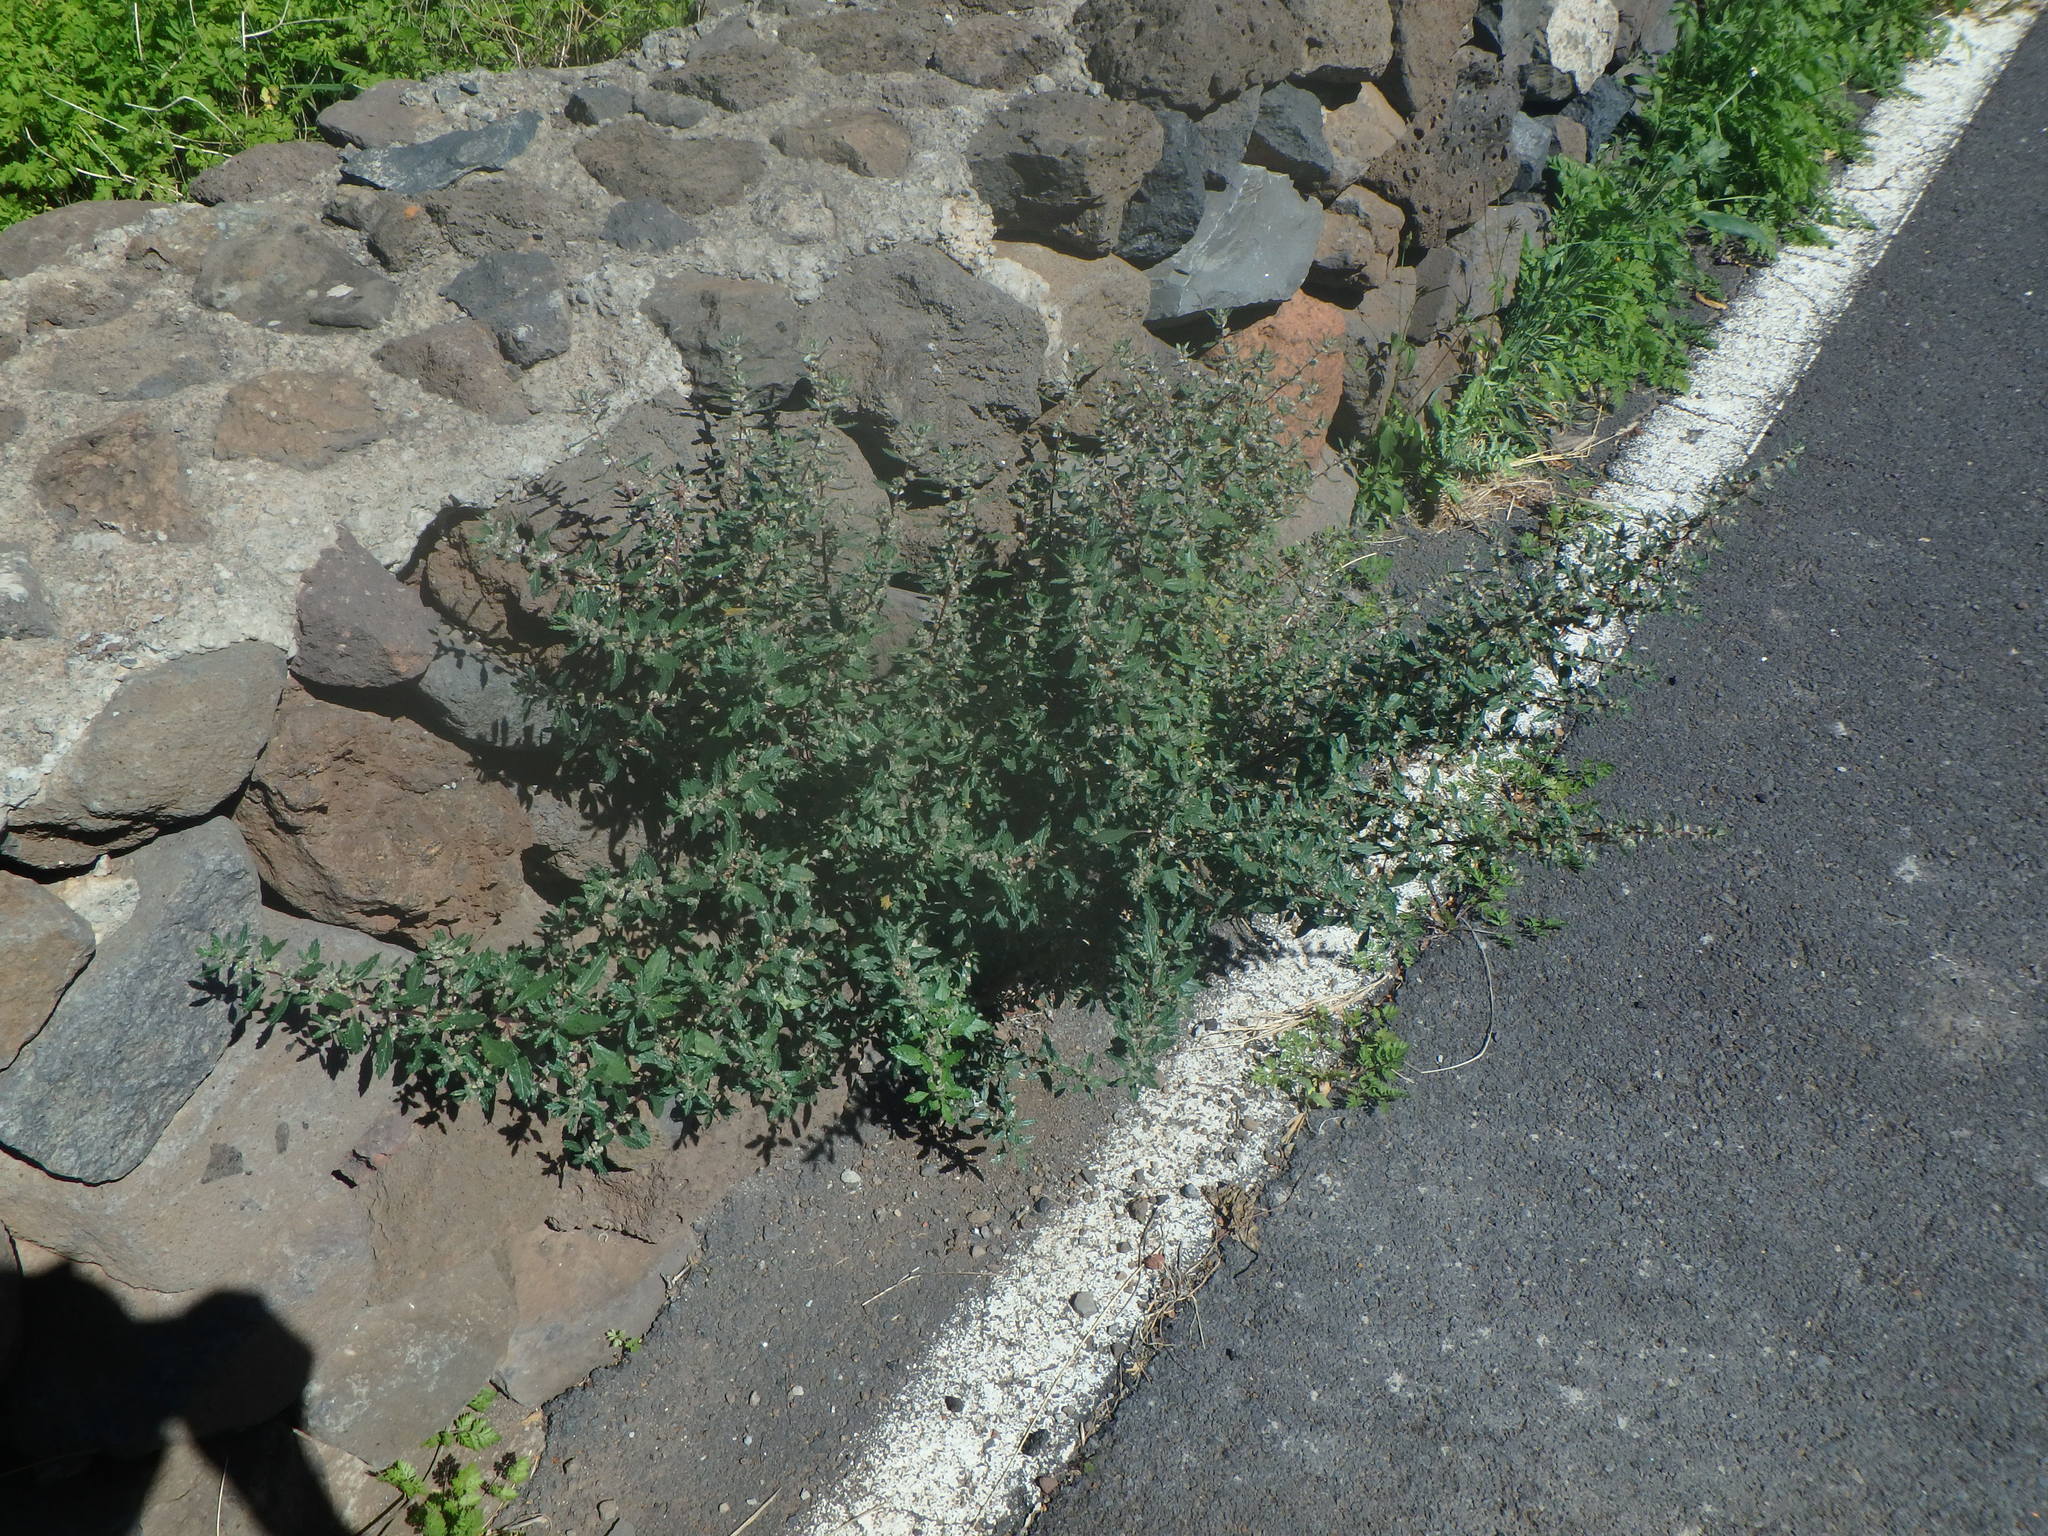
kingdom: Plantae
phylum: Tracheophyta
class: Magnoliopsida
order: Rosales
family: Urticaceae
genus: Forsskaolea
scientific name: Forsskaolea angustifolia
